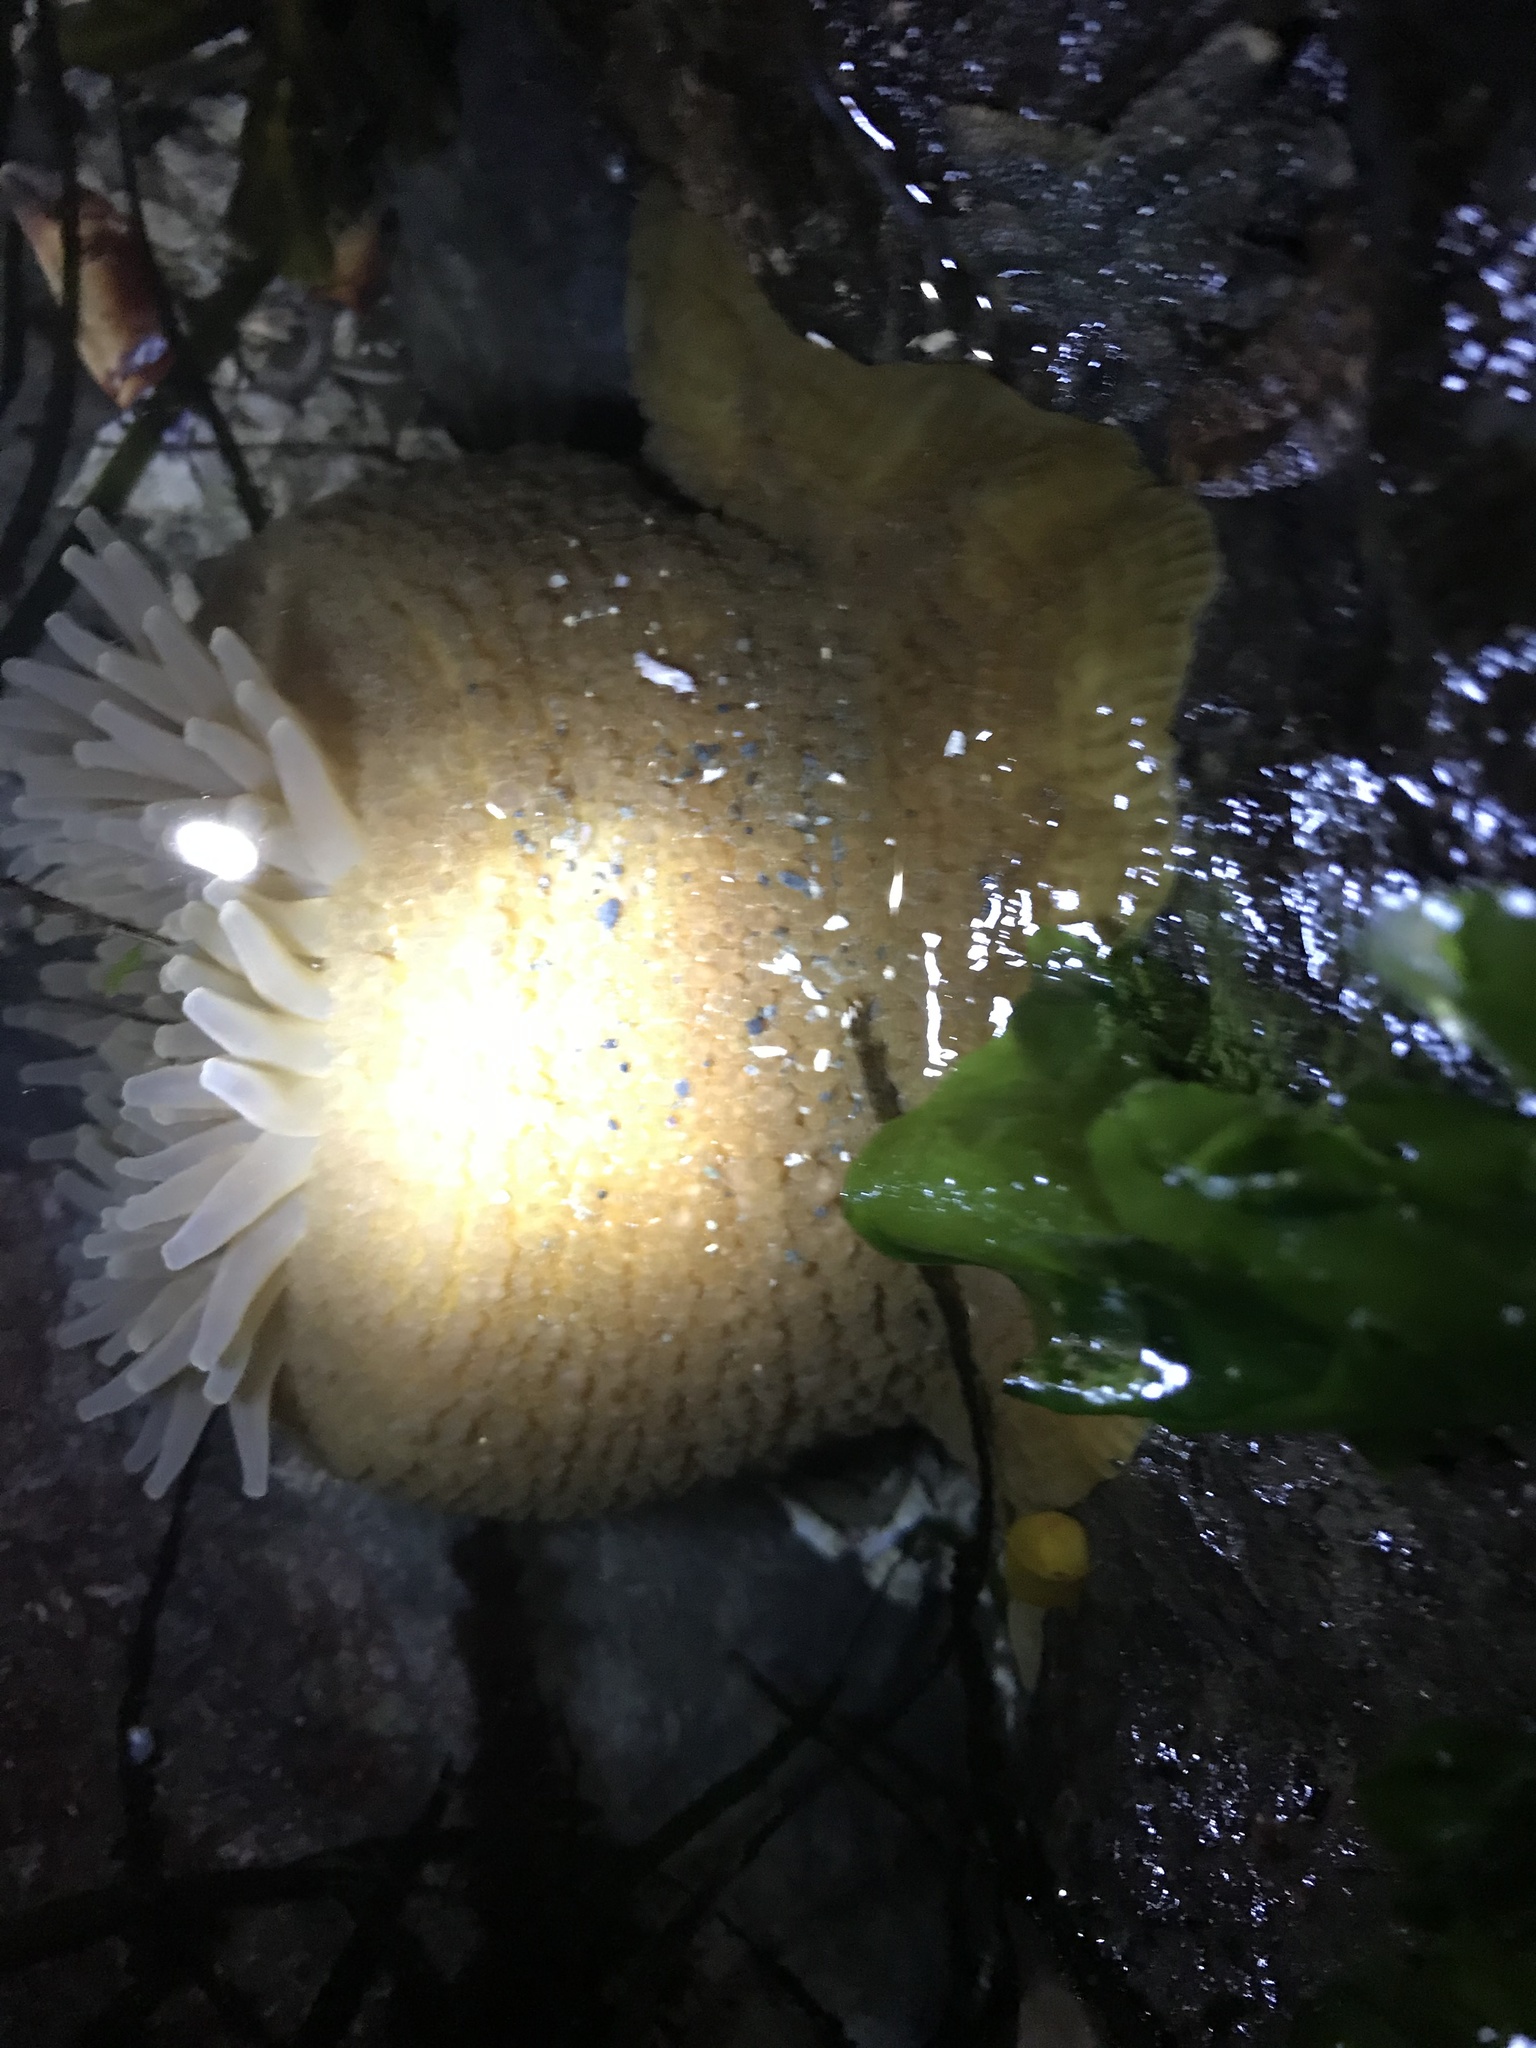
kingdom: Animalia
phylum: Cnidaria
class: Anthozoa
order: Actiniaria
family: Actiniidae
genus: Urticina
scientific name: Urticina grebelnyi
